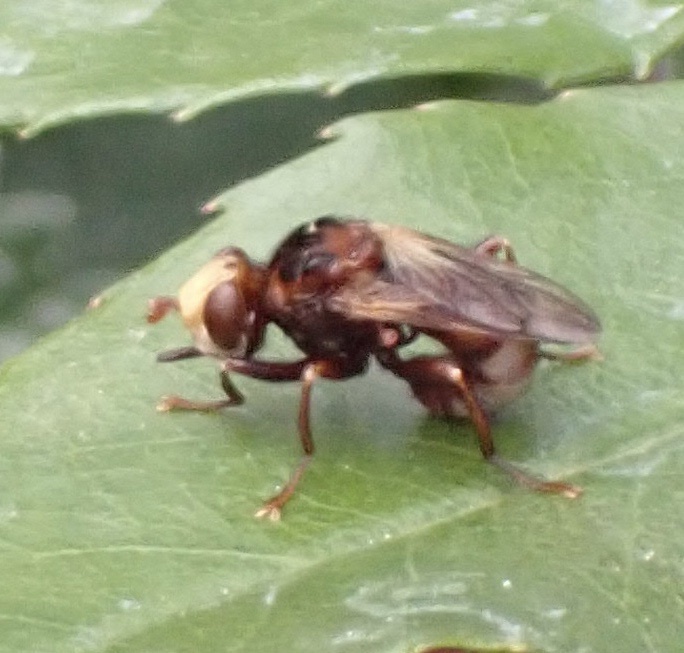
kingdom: Animalia
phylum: Arthropoda
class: Insecta
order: Diptera
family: Conopidae
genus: Sicus
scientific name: Sicus ferrugineus
